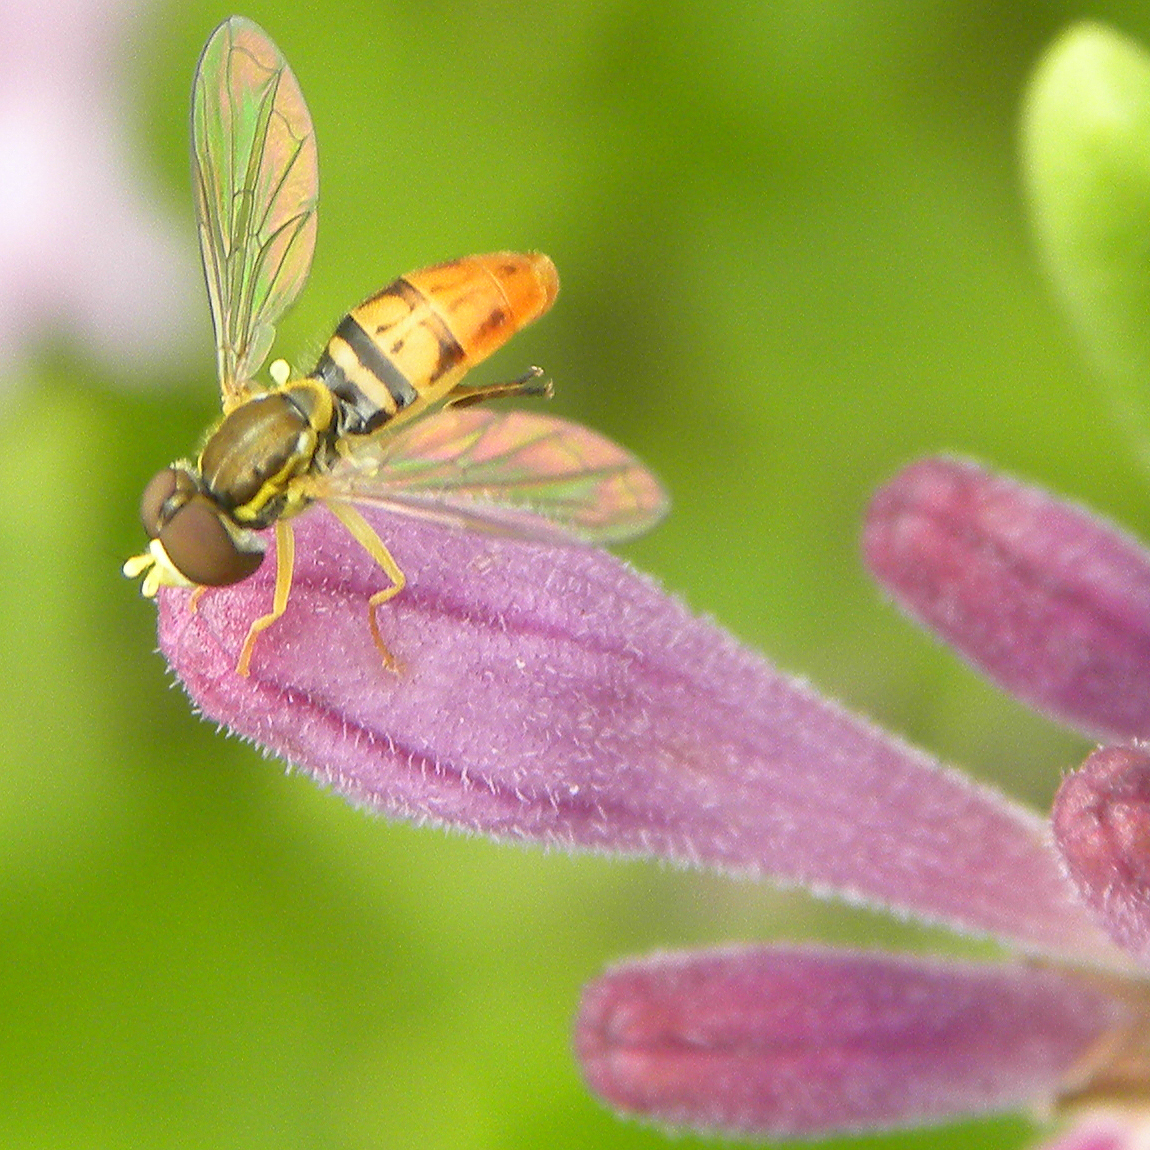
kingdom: Animalia
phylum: Arthropoda
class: Insecta
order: Diptera
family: Syrphidae
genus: Toxomerus
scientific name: Toxomerus marginatus
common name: Syrphid fly
